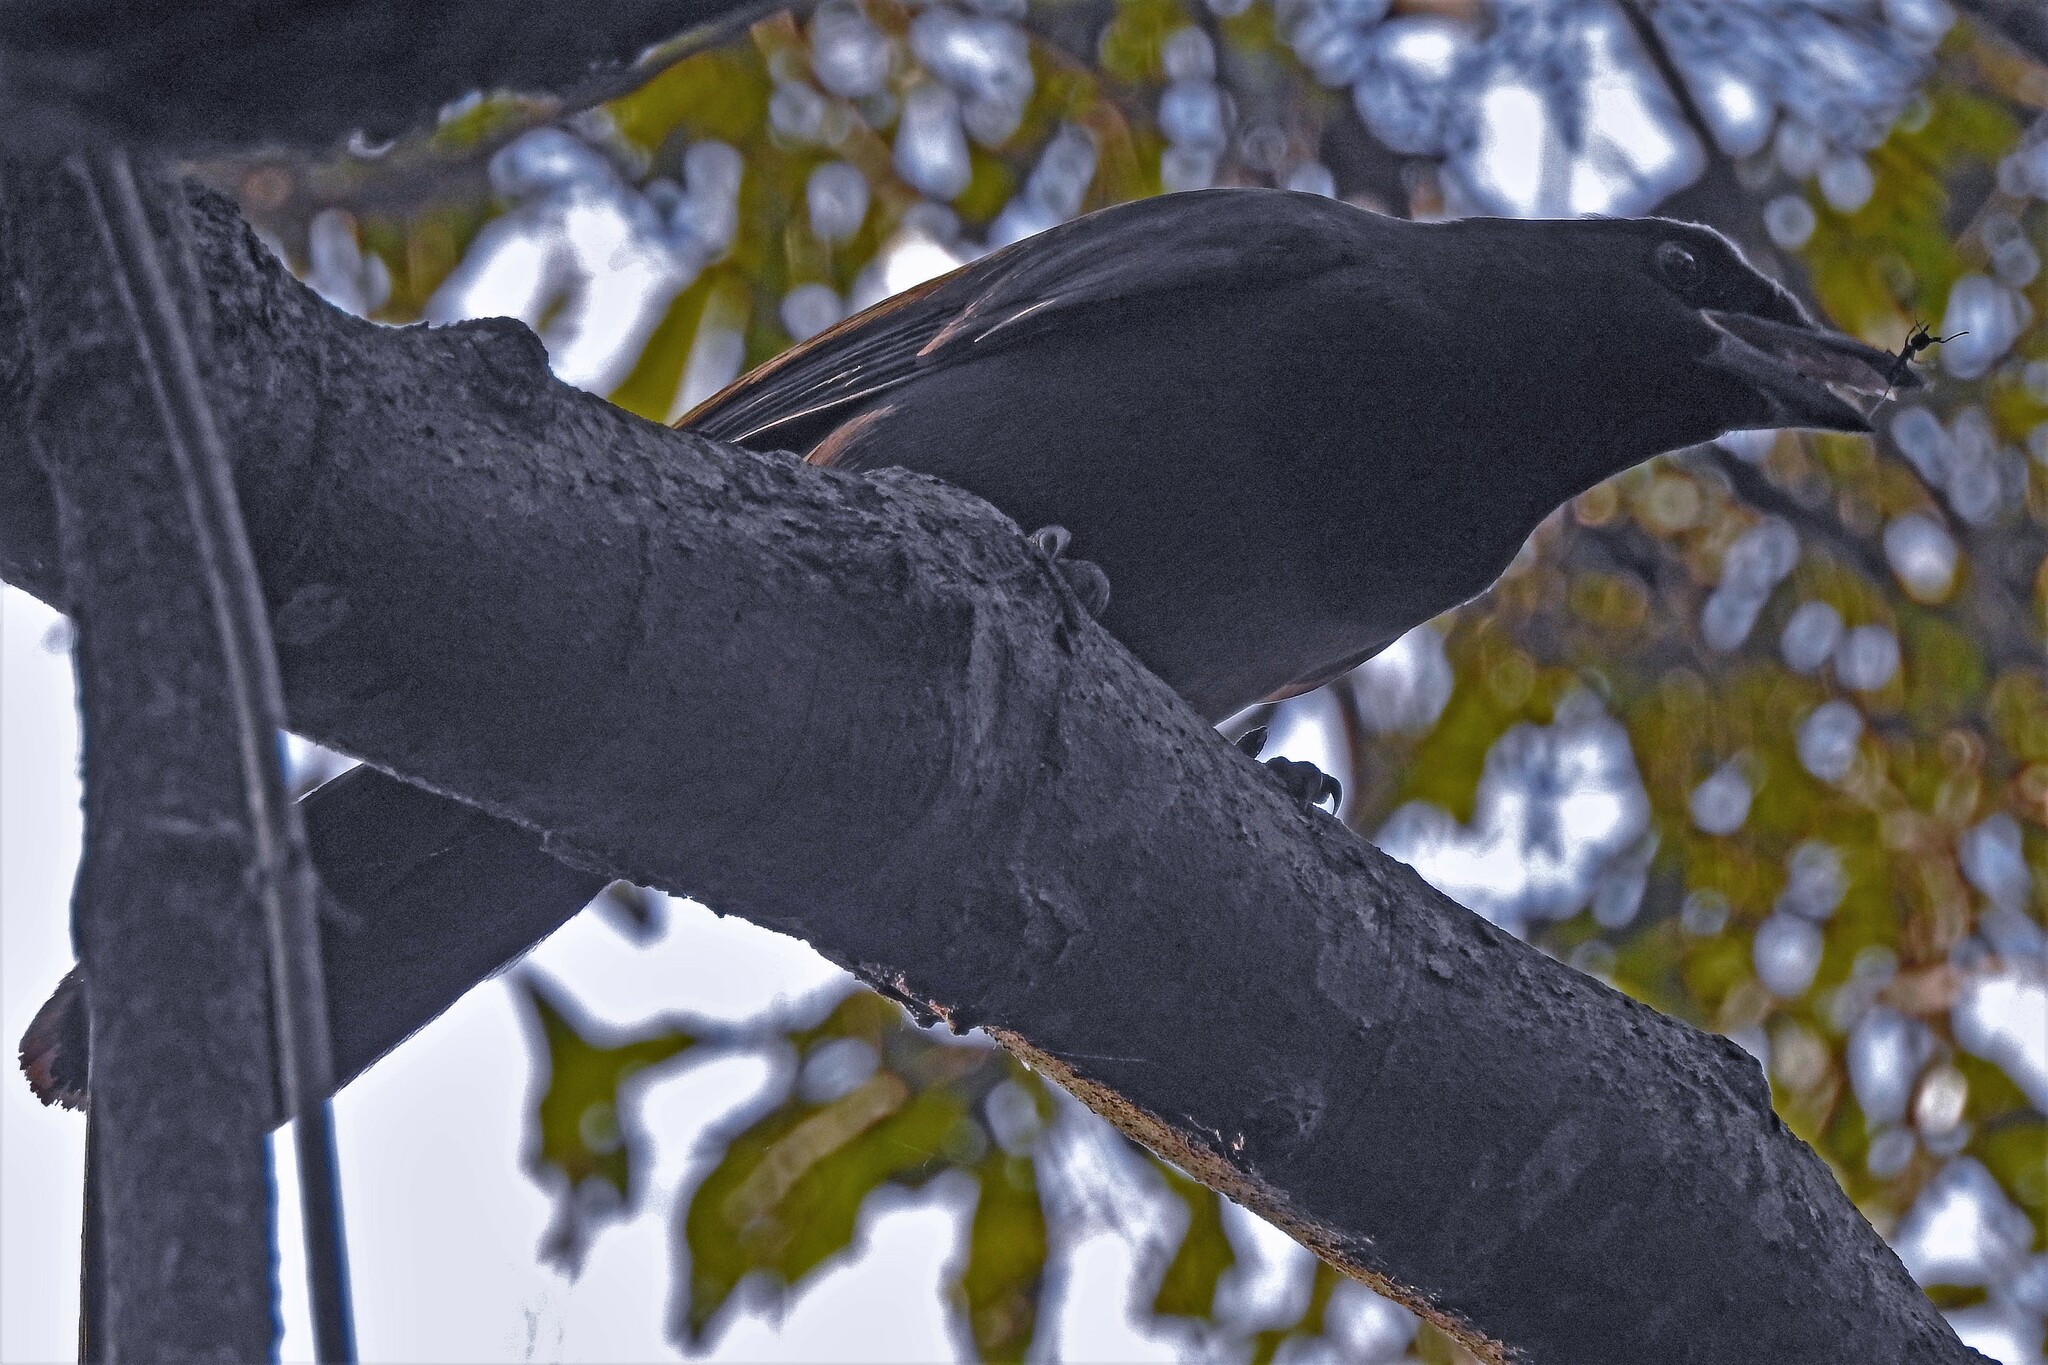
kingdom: Animalia
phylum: Chordata
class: Aves
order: Passeriformes
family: Corvidae
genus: Cyanocorax
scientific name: Cyanocorax cyanomelas
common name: Purplish jay
